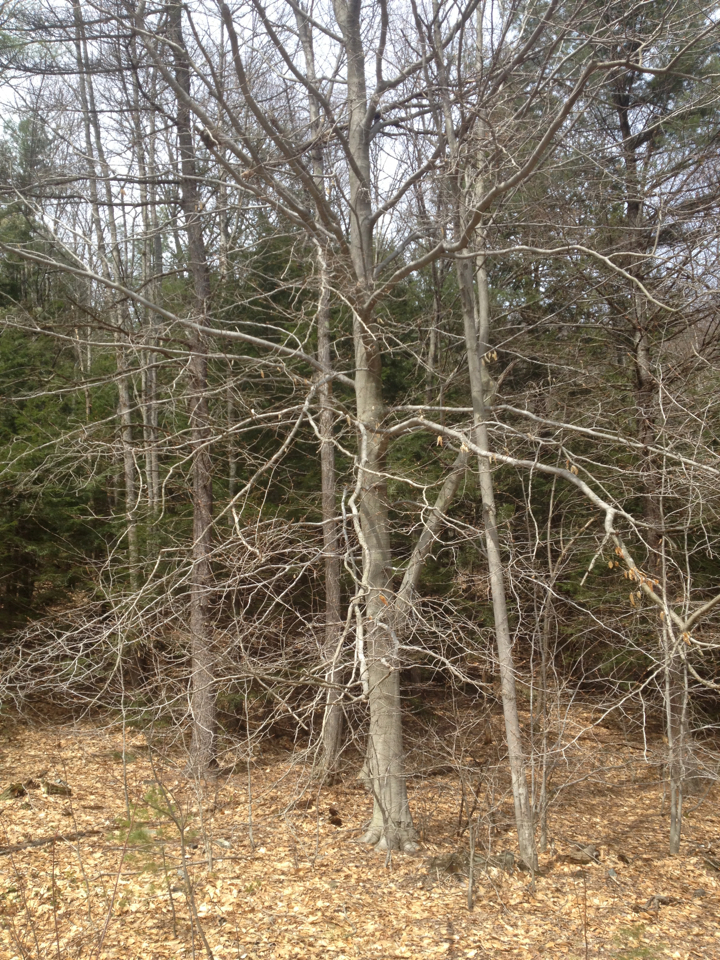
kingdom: Plantae
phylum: Tracheophyta
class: Magnoliopsida
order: Fagales
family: Fagaceae
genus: Fagus
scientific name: Fagus grandifolia
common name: American beech
